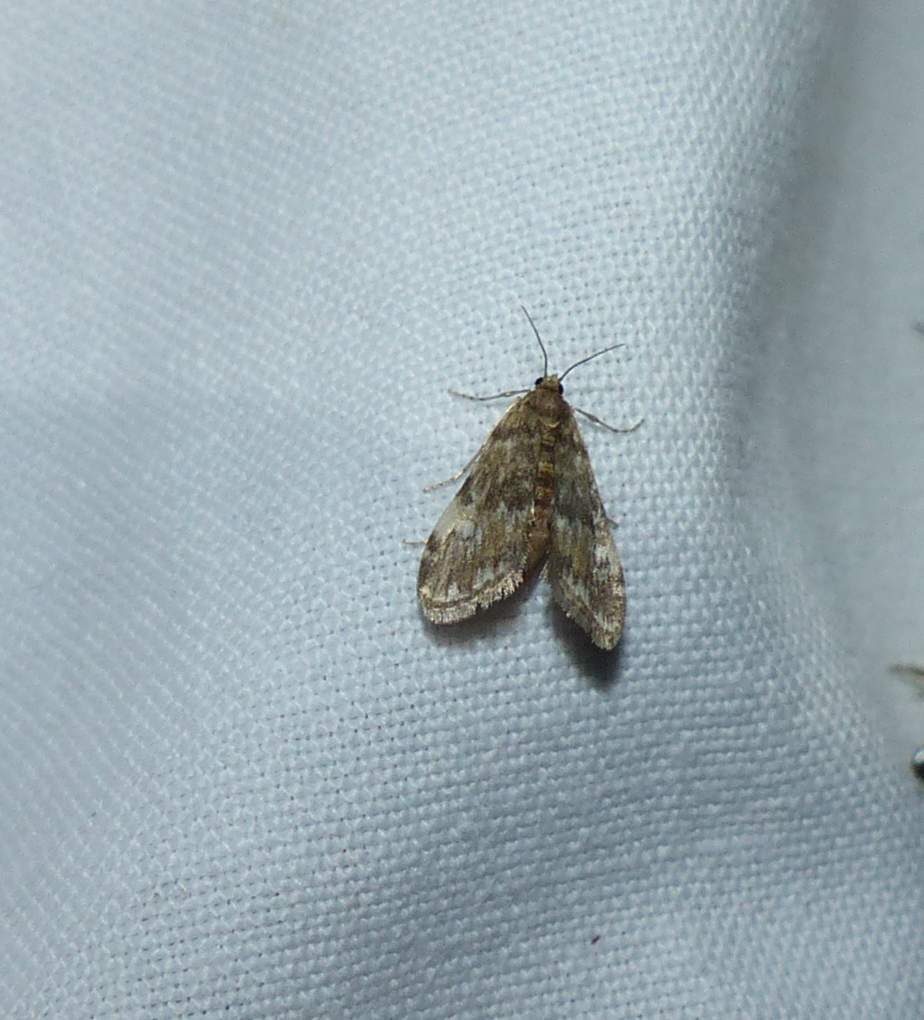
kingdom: Animalia
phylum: Arthropoda
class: Insecta
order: Lepidoptera
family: Crambidae
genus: Elophila
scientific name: Elophila obliteralis
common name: Waterlily leafcutter moth
